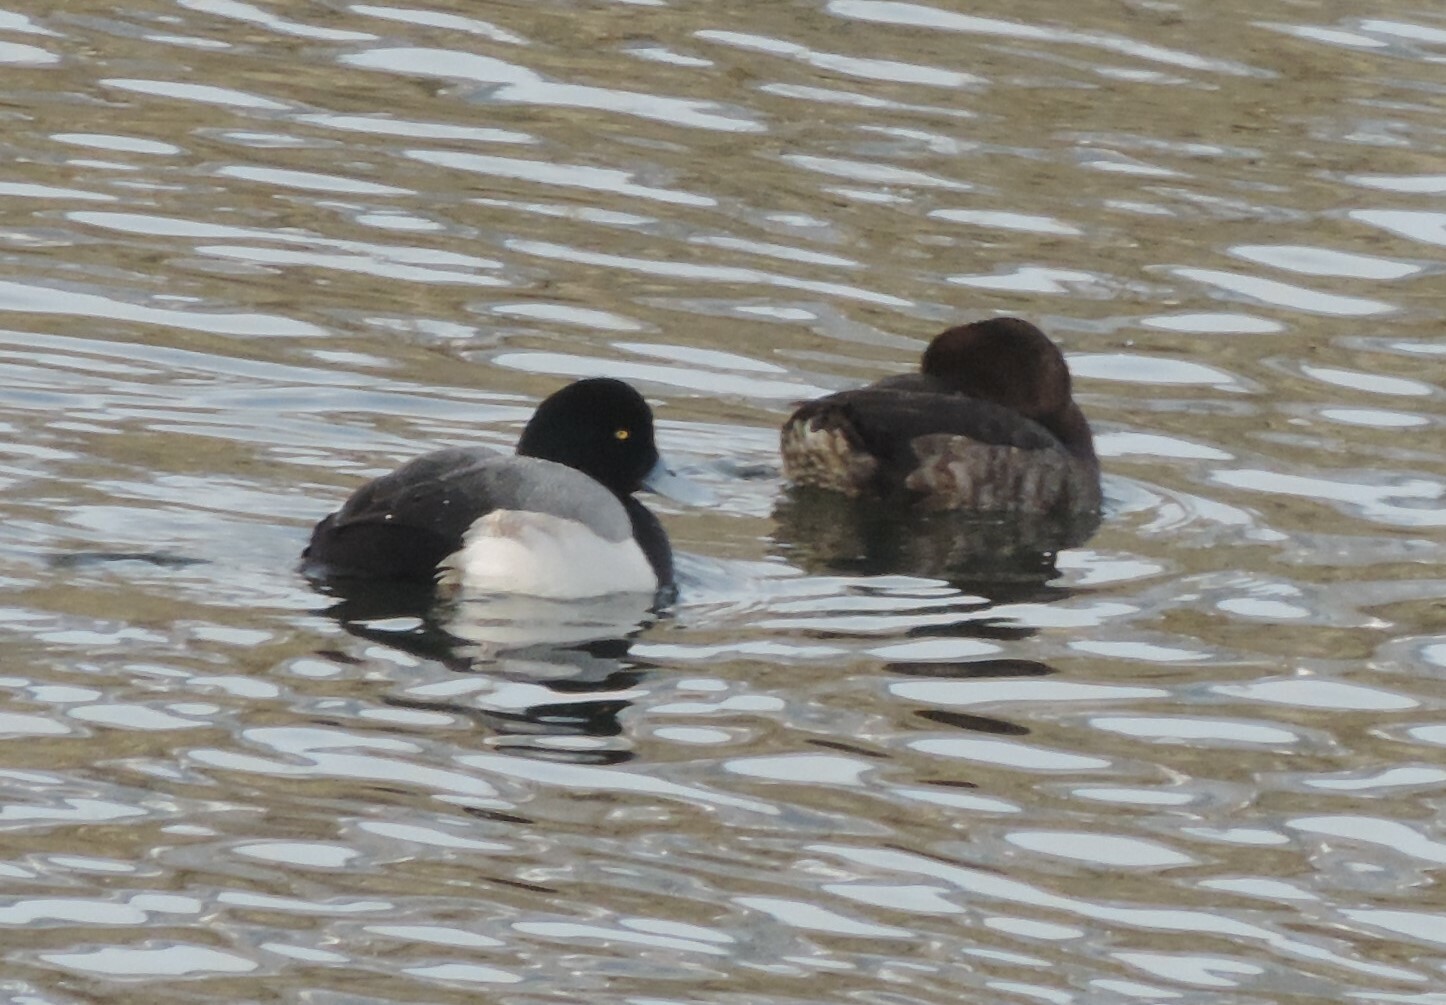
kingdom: Animalia
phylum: Chordata
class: Aves
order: Anseriformes
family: Anatidae
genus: Aythya
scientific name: Aythya marila
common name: Greater scaup
